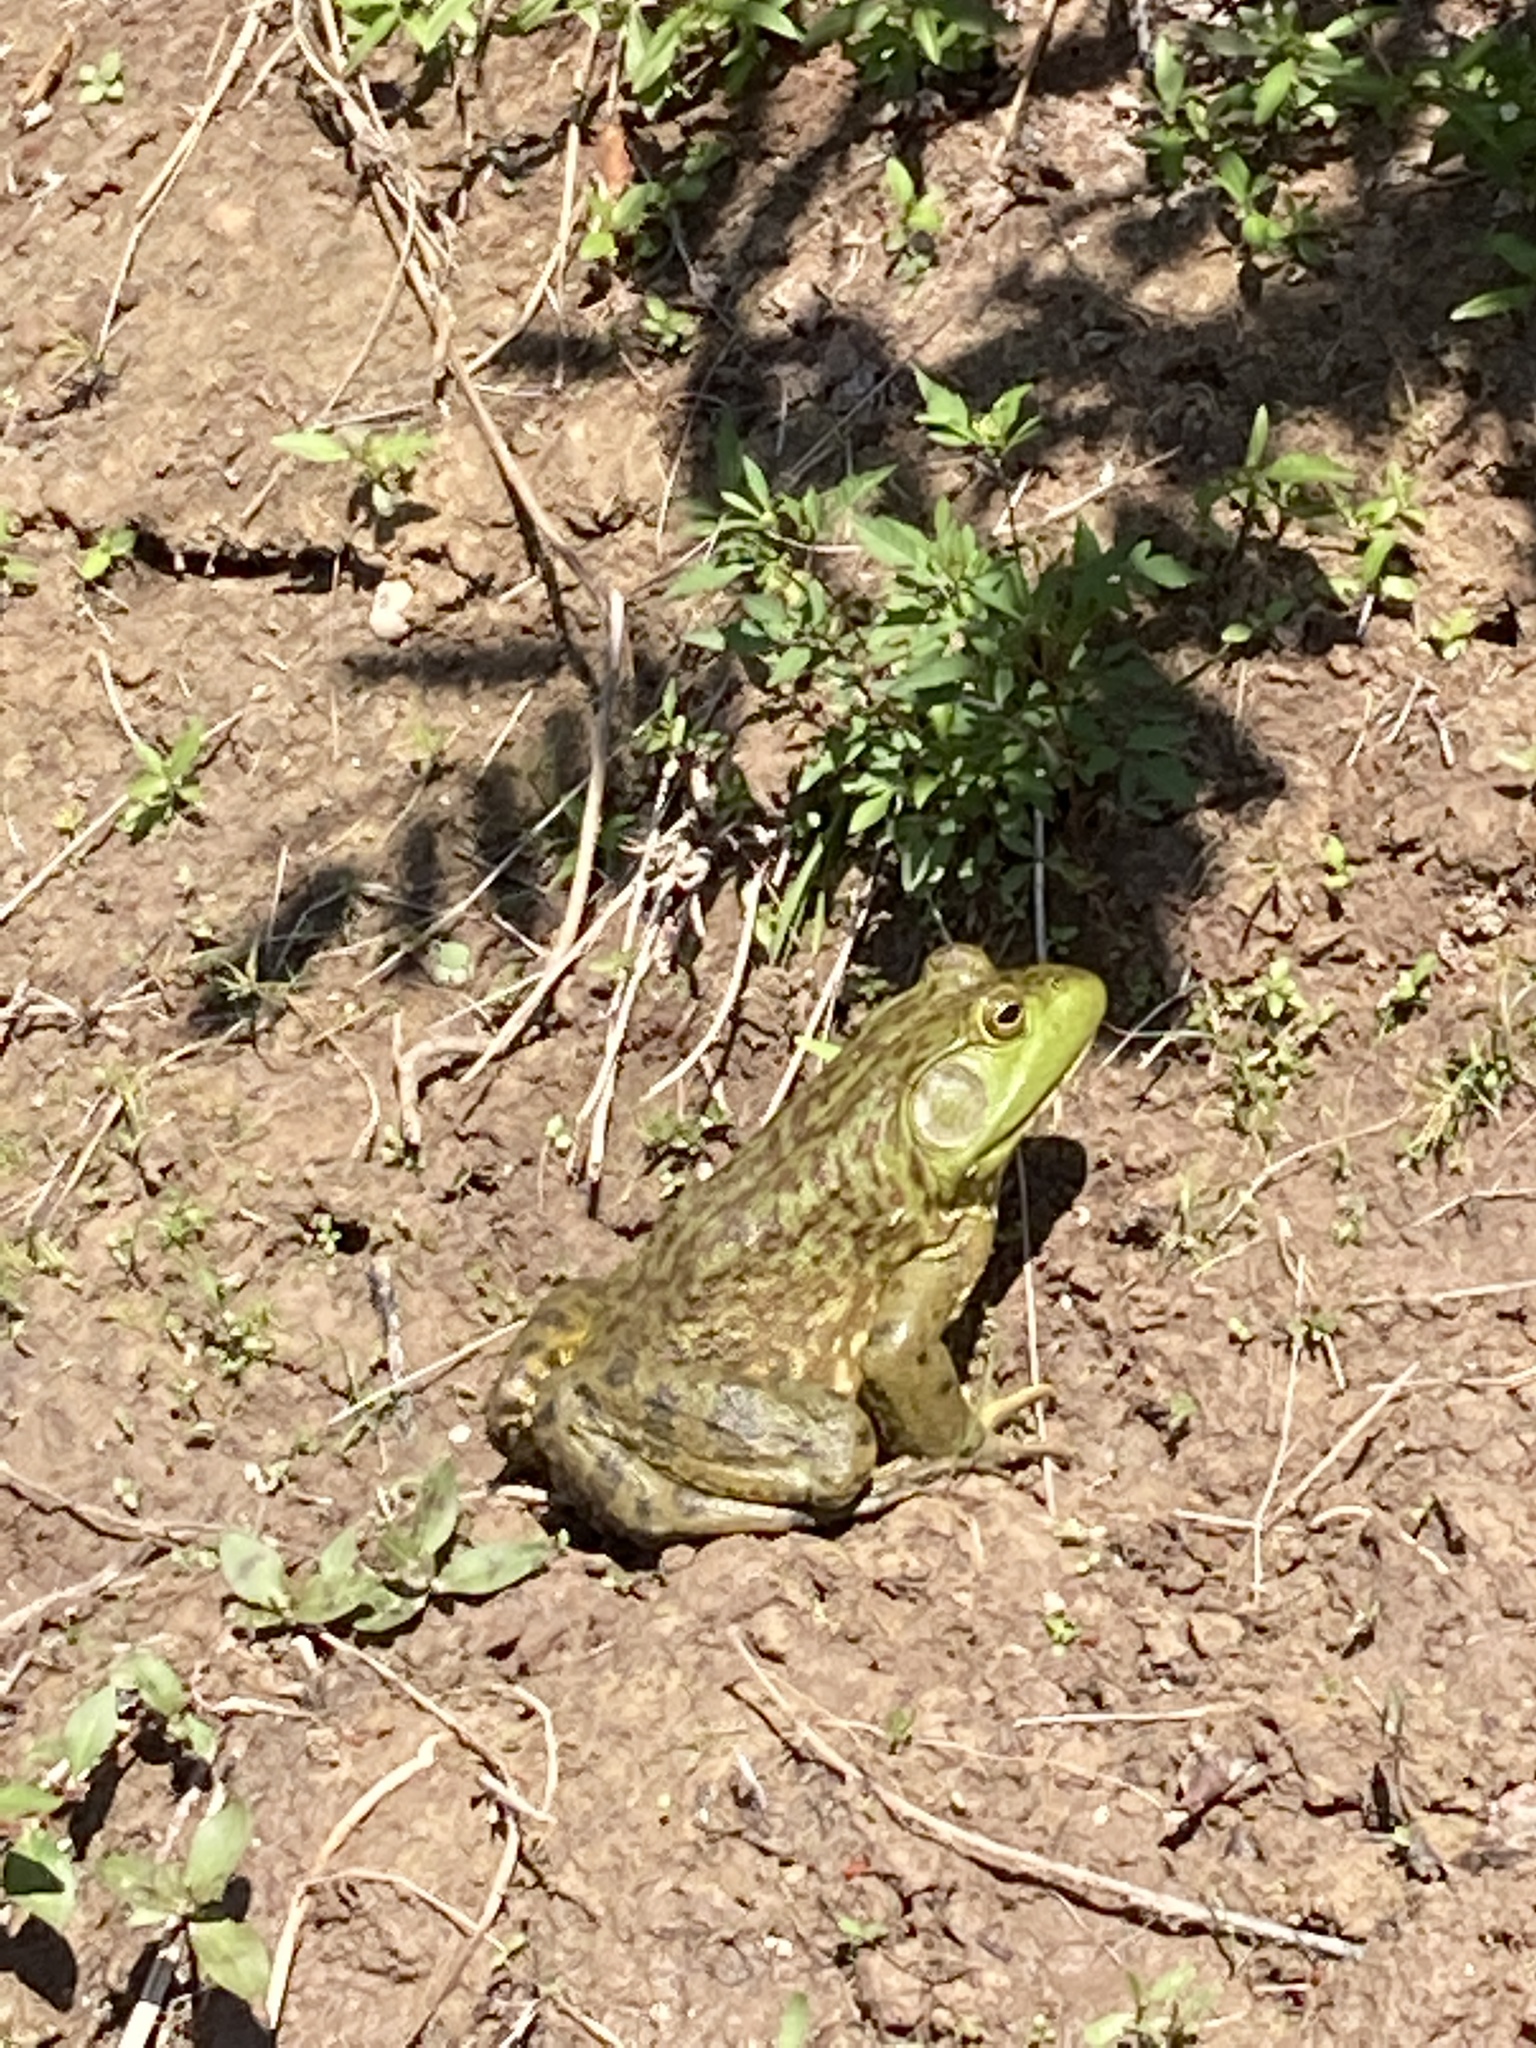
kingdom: Animalia
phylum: Chordata
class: Amphibia
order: Anura
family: Ranidae
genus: Lithobates
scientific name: Lithobates catesbeianus
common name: American bullfrog
